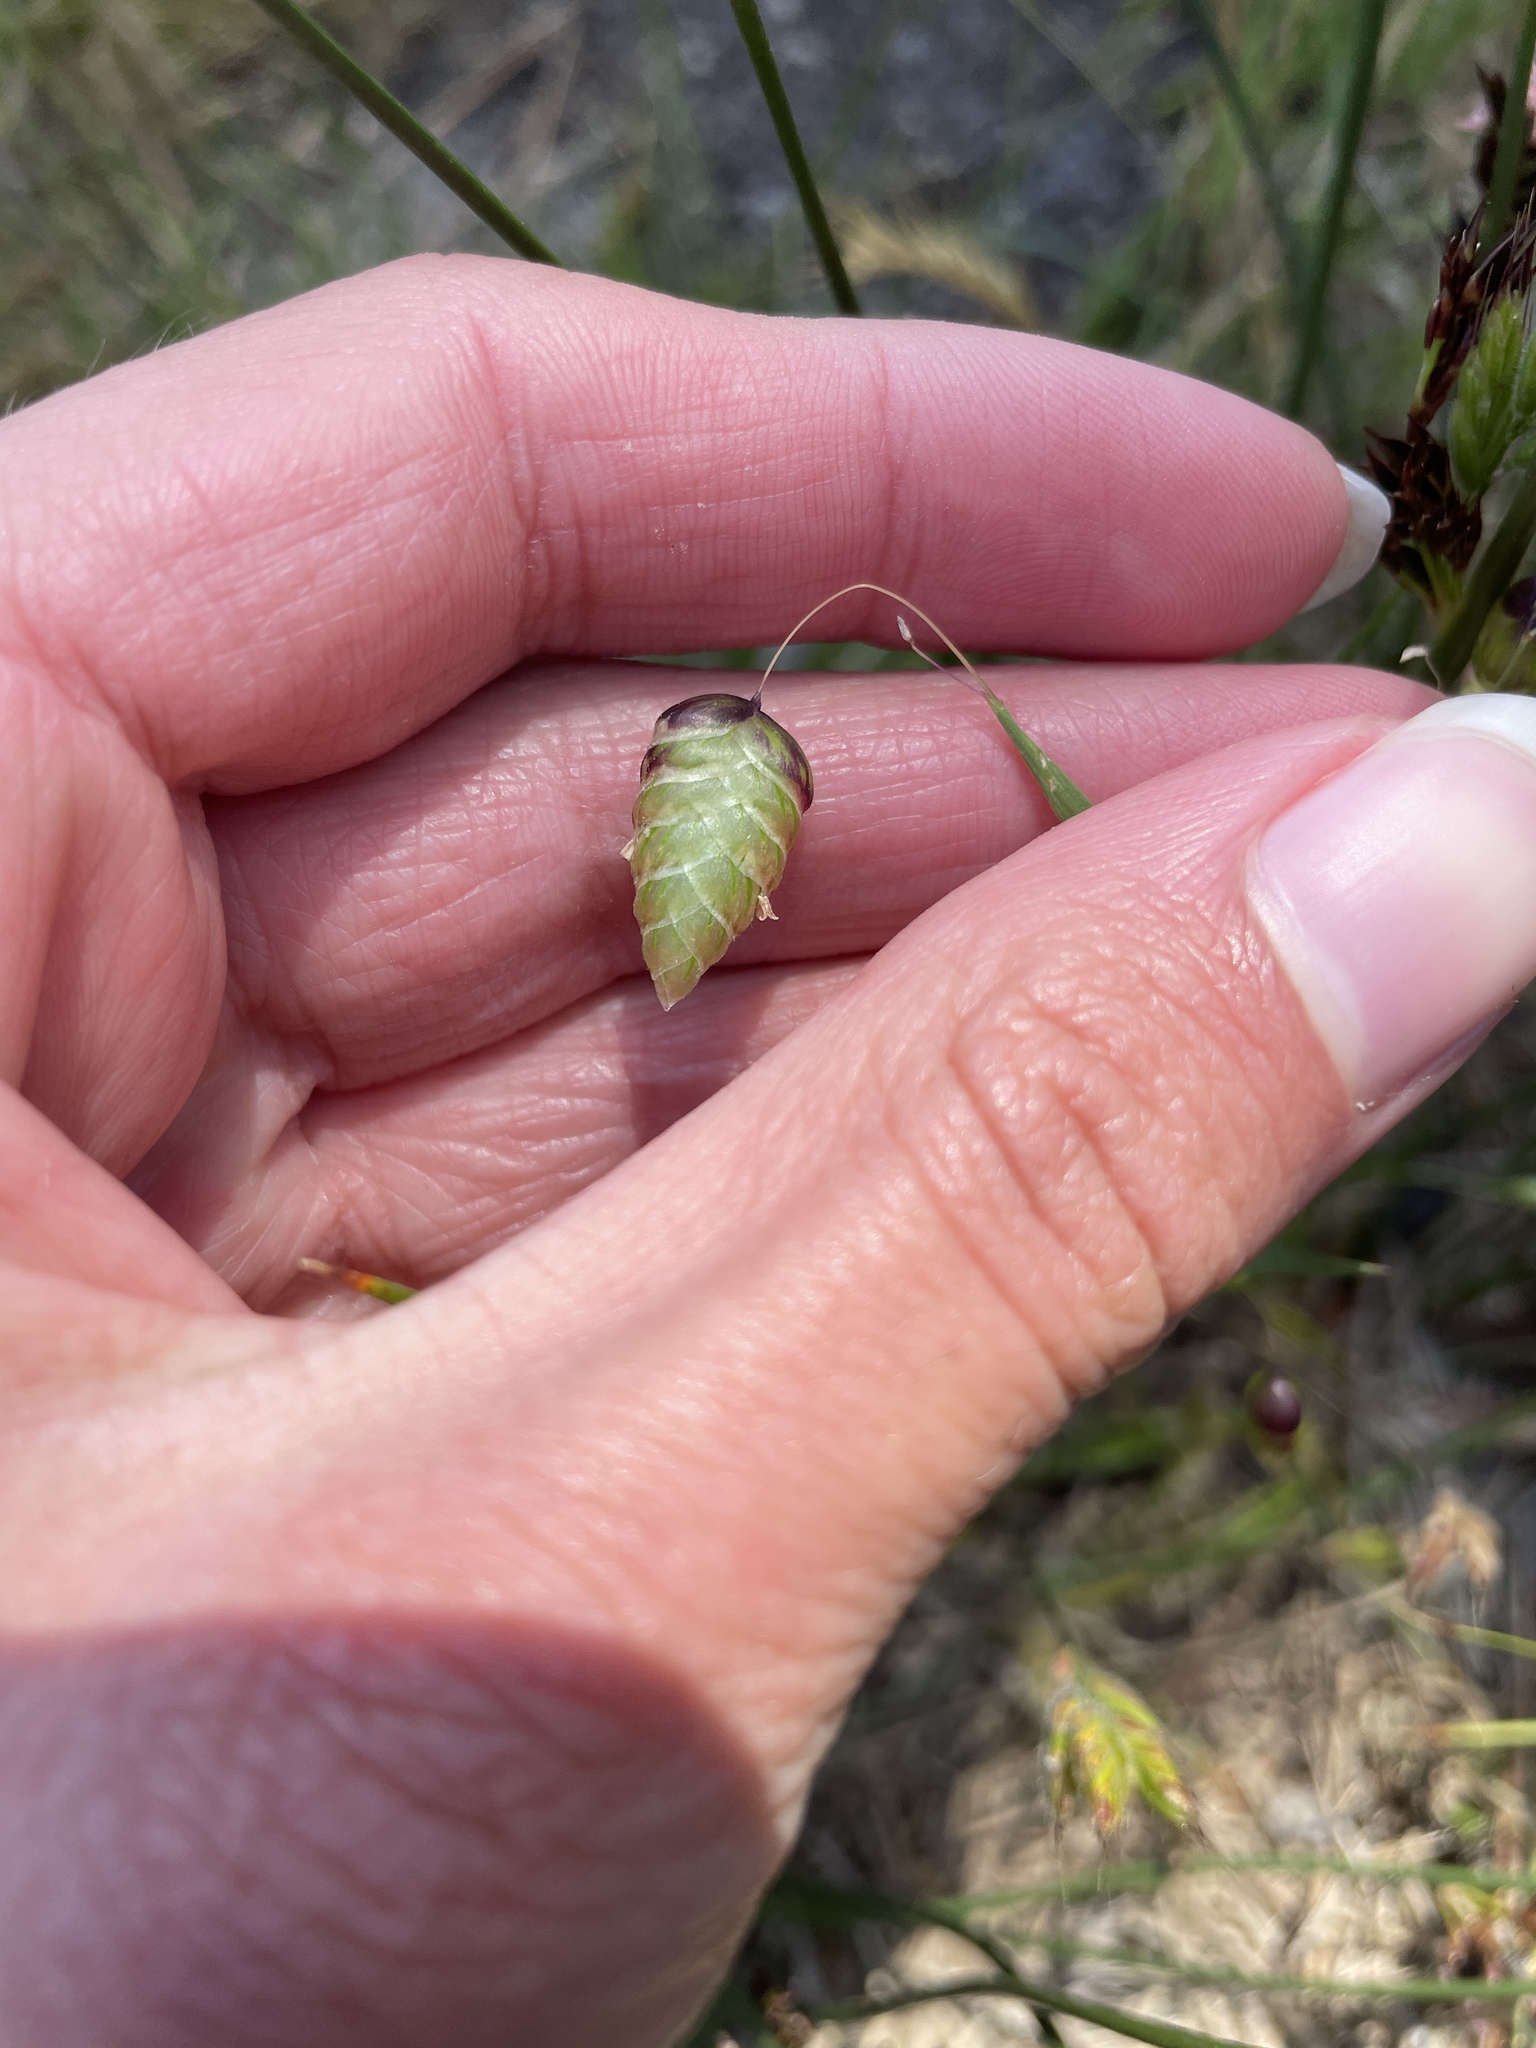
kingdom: Plantae
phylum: Tracheophyta
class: Liliopsida
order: Poales
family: Poaceae
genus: Briza
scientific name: Briza maxima
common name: Big quakinggrass
